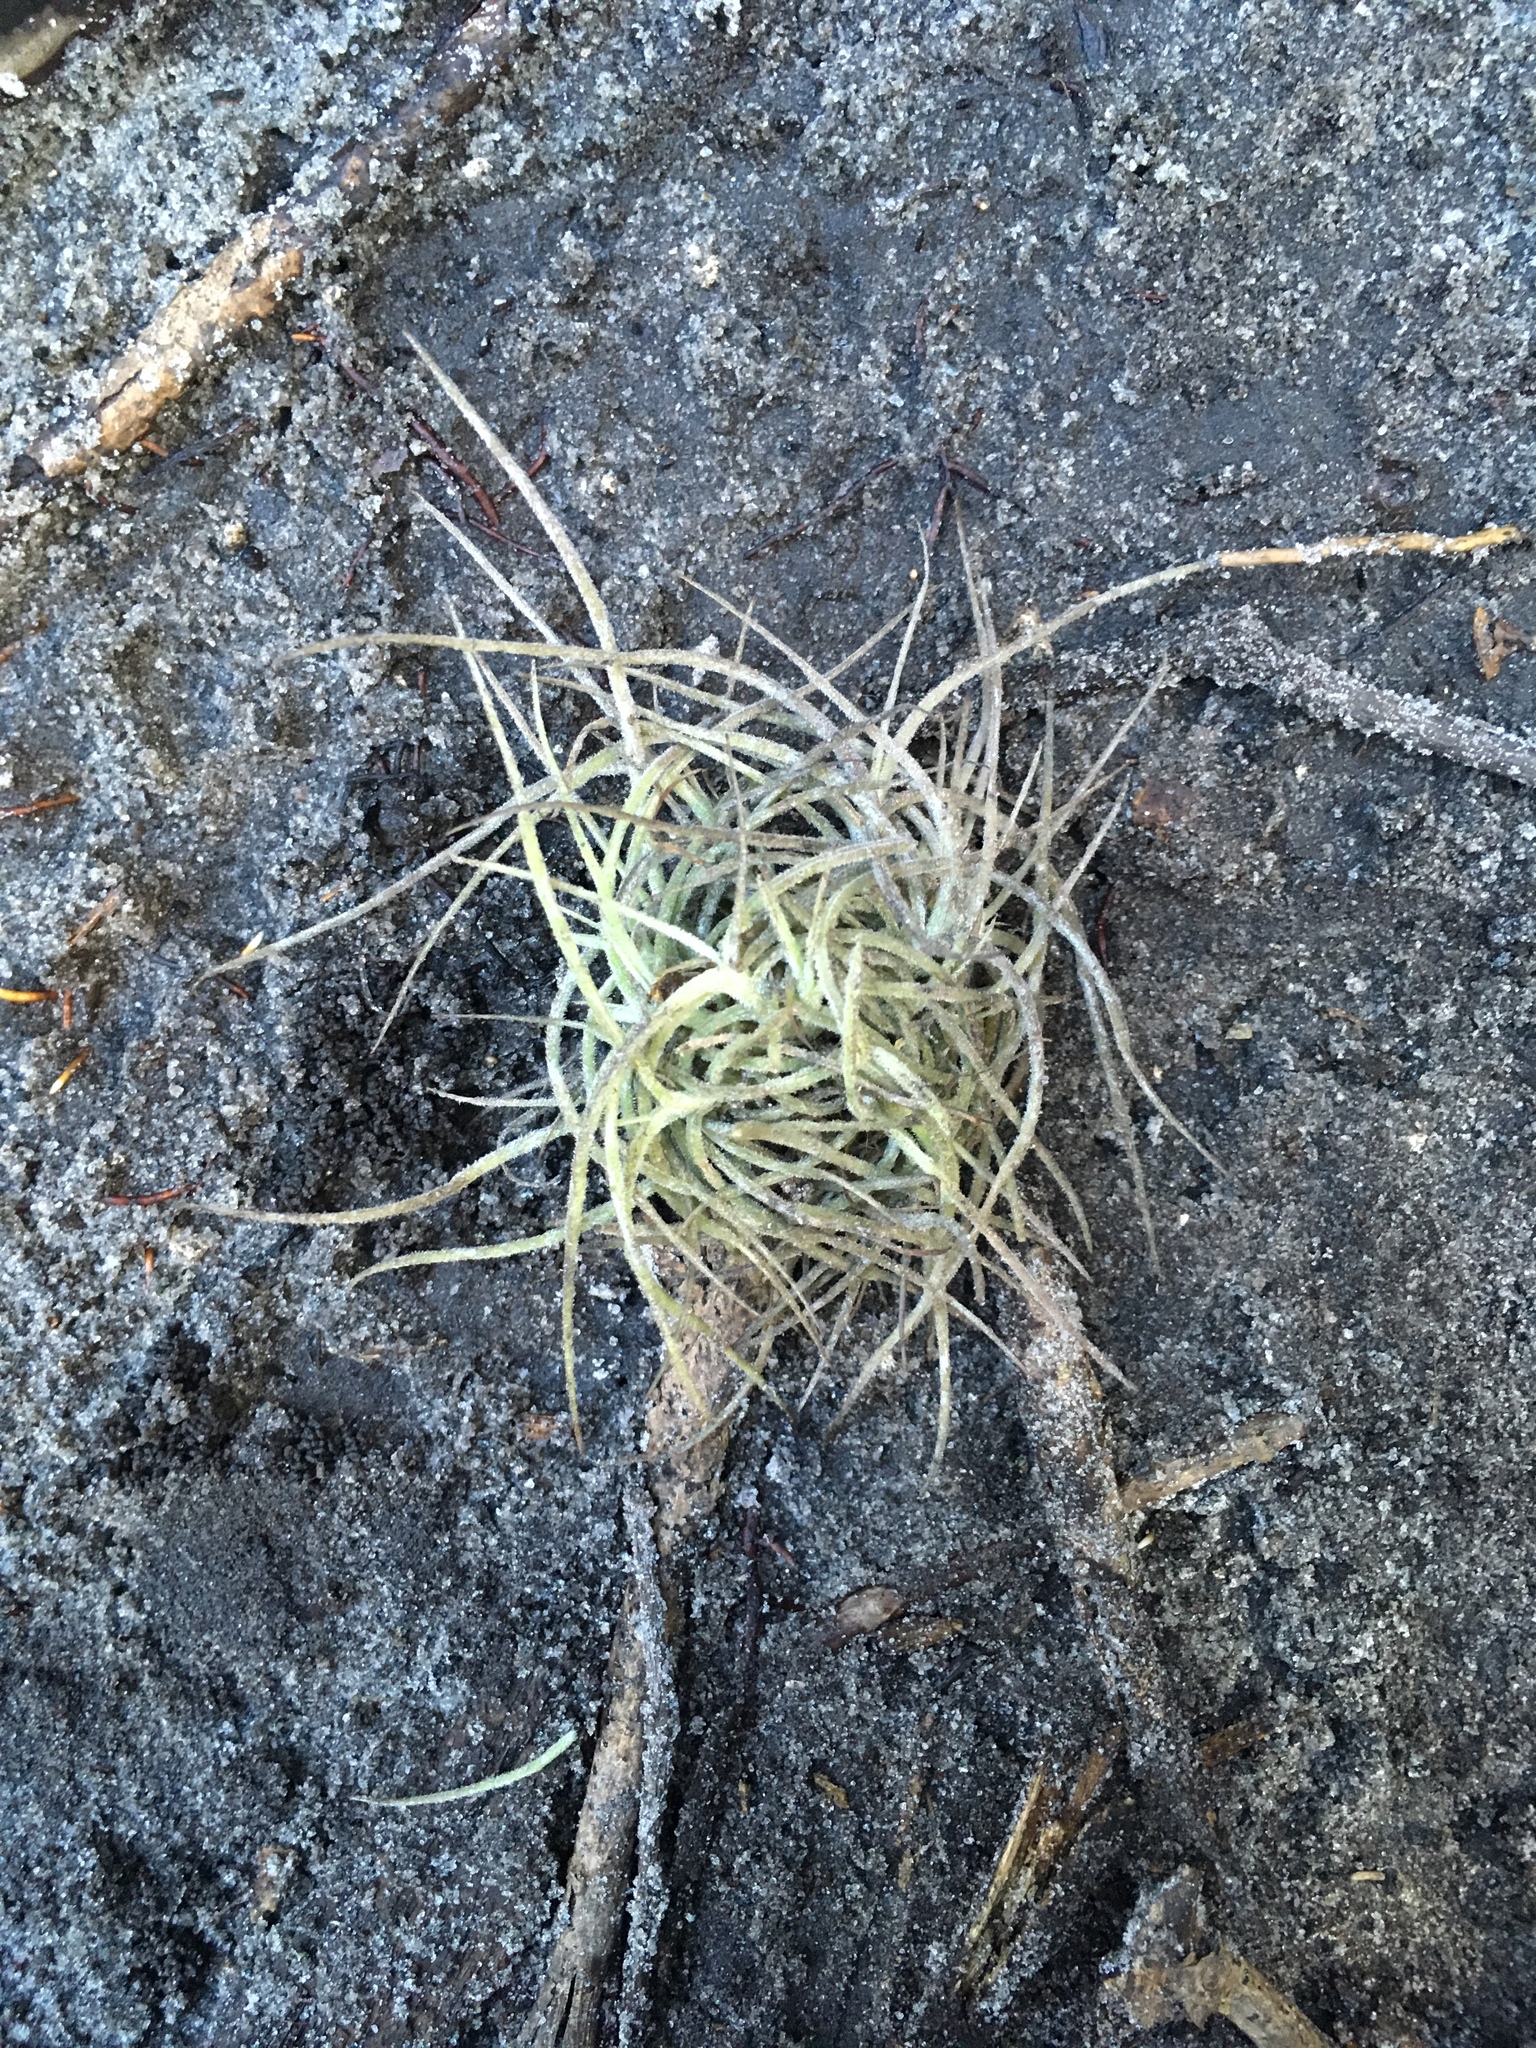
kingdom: Plantae
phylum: Tracheophyta
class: Liliopsida
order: Poales
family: Bromeliaceae
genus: Tillandsia
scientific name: Tillandsia recurvata
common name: Small ballmoss
